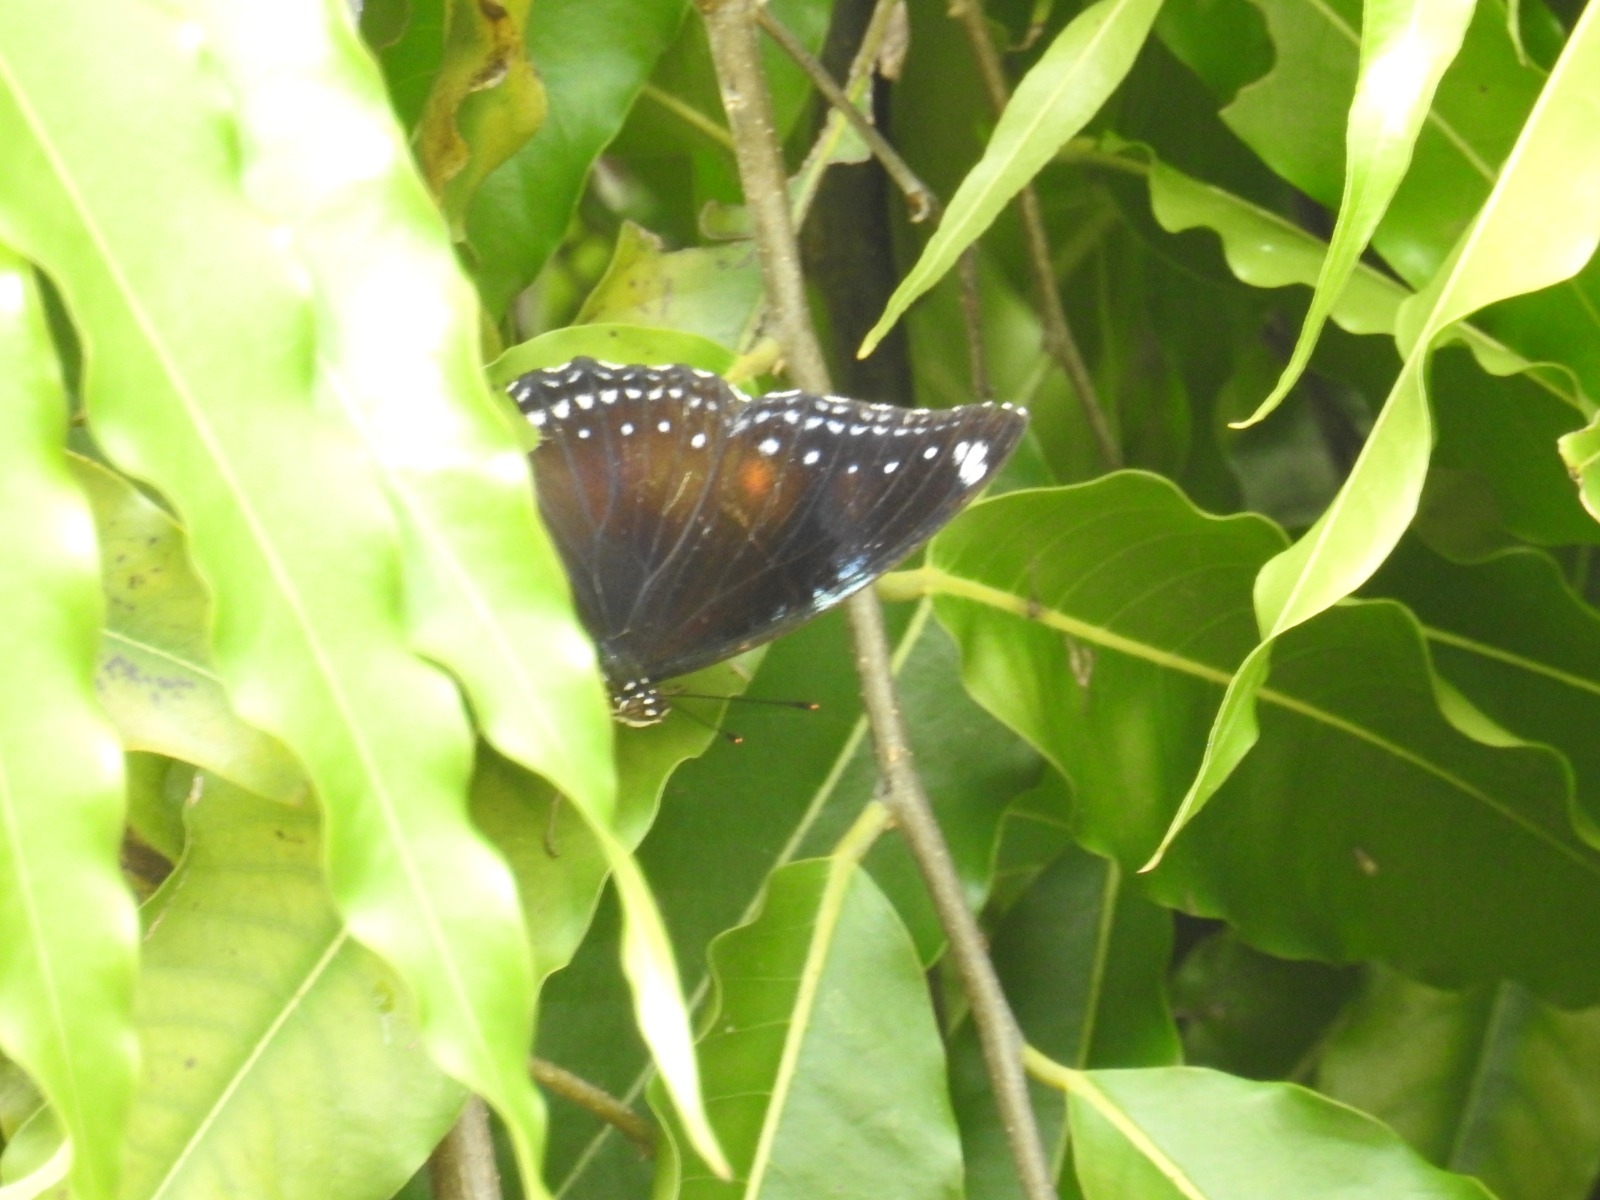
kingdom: Animalia
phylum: Arthropoda
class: Insecta
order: Lepidoptera
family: Nymphalidae
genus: Hypolimnas
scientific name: Hypolimnas bolina
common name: Great eggfly
